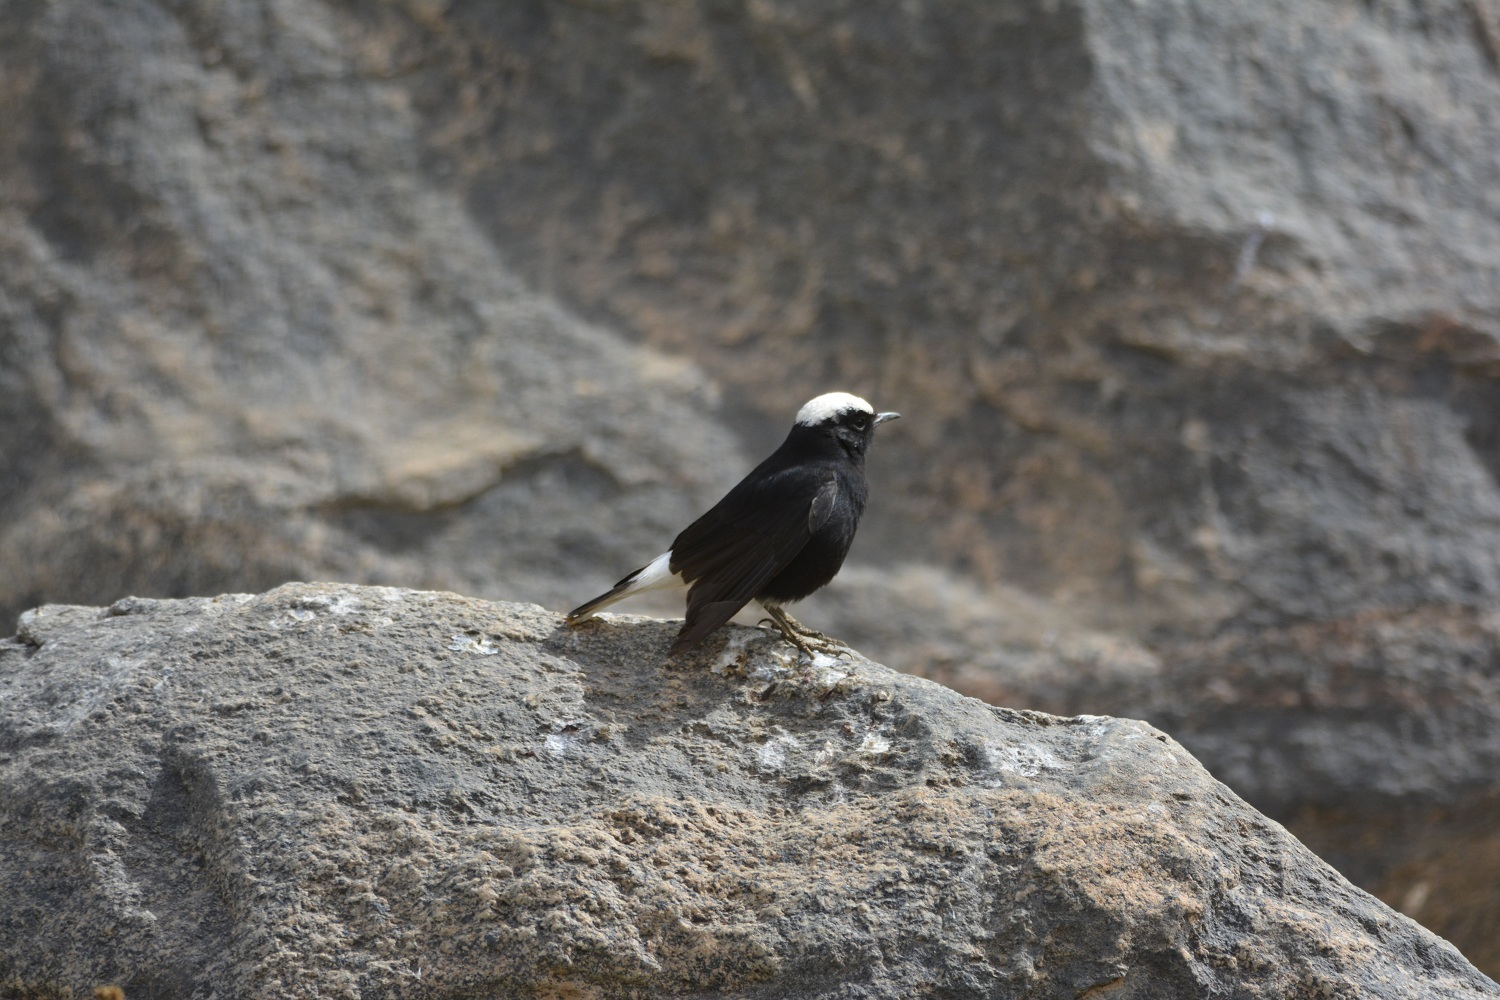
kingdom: Animalia
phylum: Chordata
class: Aves
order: Passeriformes
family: Muscicapidae
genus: Oenanthe
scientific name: Oenanthe leucopyga
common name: White-crowned wheatear
